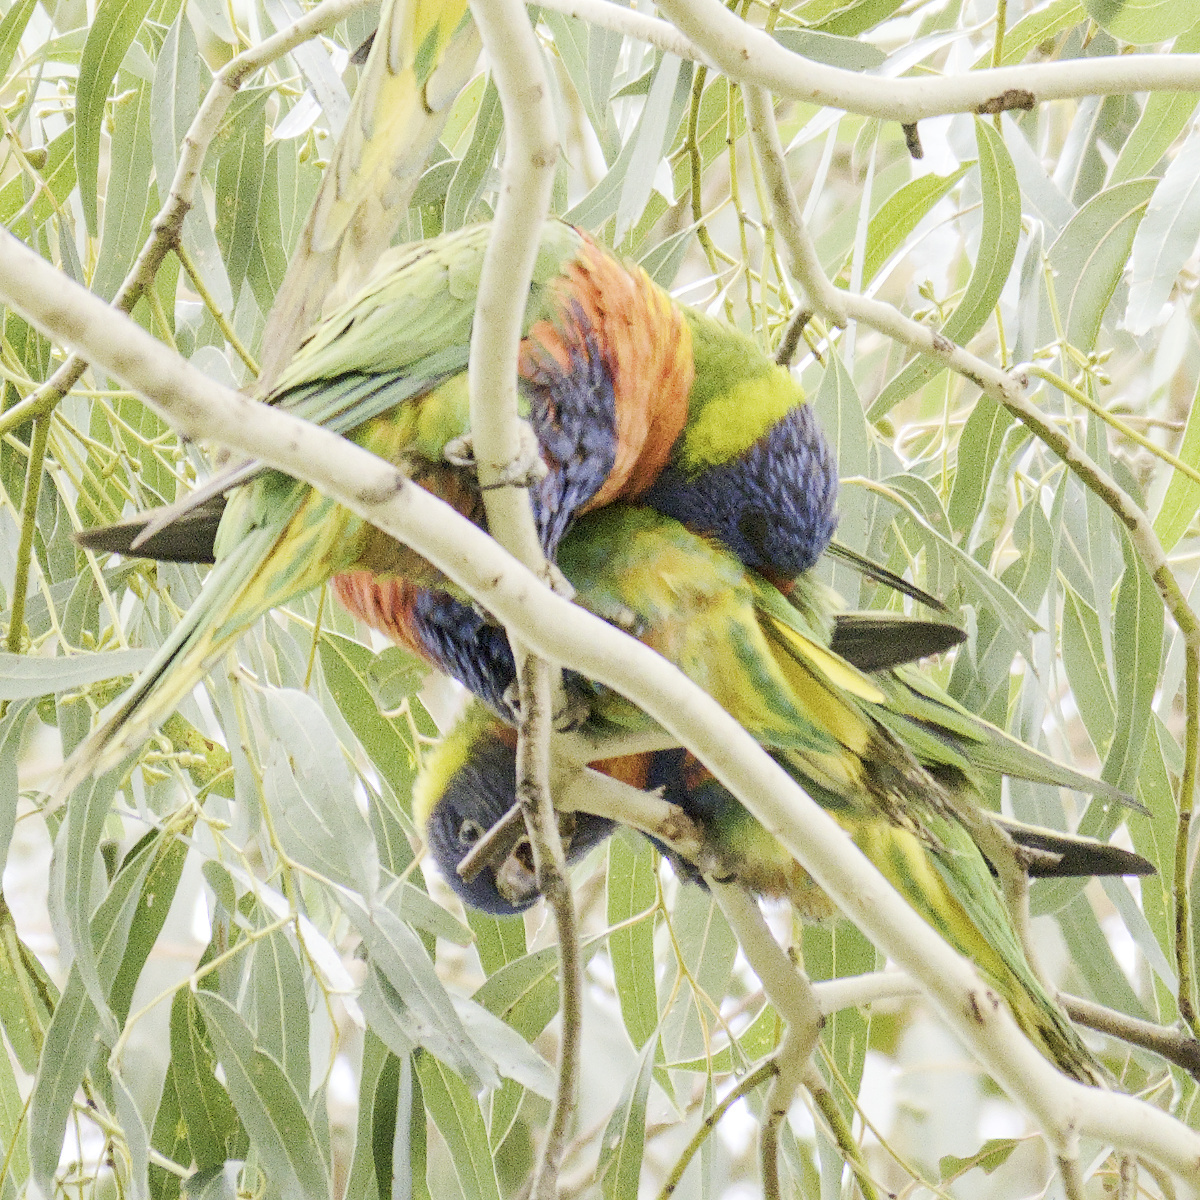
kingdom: Animalia
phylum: Chordata
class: Aves
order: Psittaciformes
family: Psittacidae
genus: Trichoglossus
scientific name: Trichoglossus haematodus
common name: Coconut lorikeet
